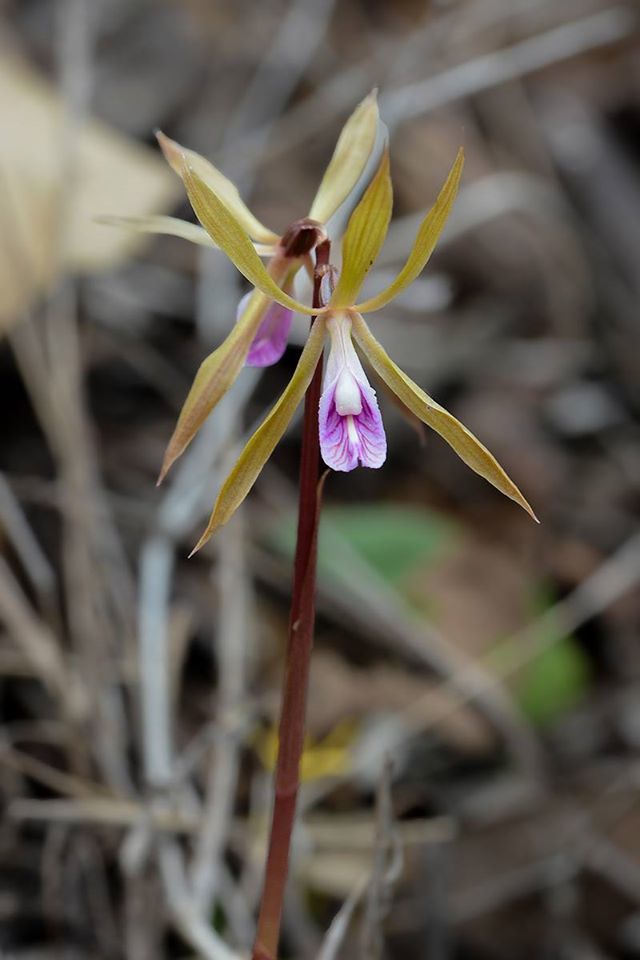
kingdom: Plantae
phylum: Tracheophyta
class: Liliopsida
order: Asparagales
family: Orchidaceae
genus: Nervilia
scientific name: Nervilia plicata
